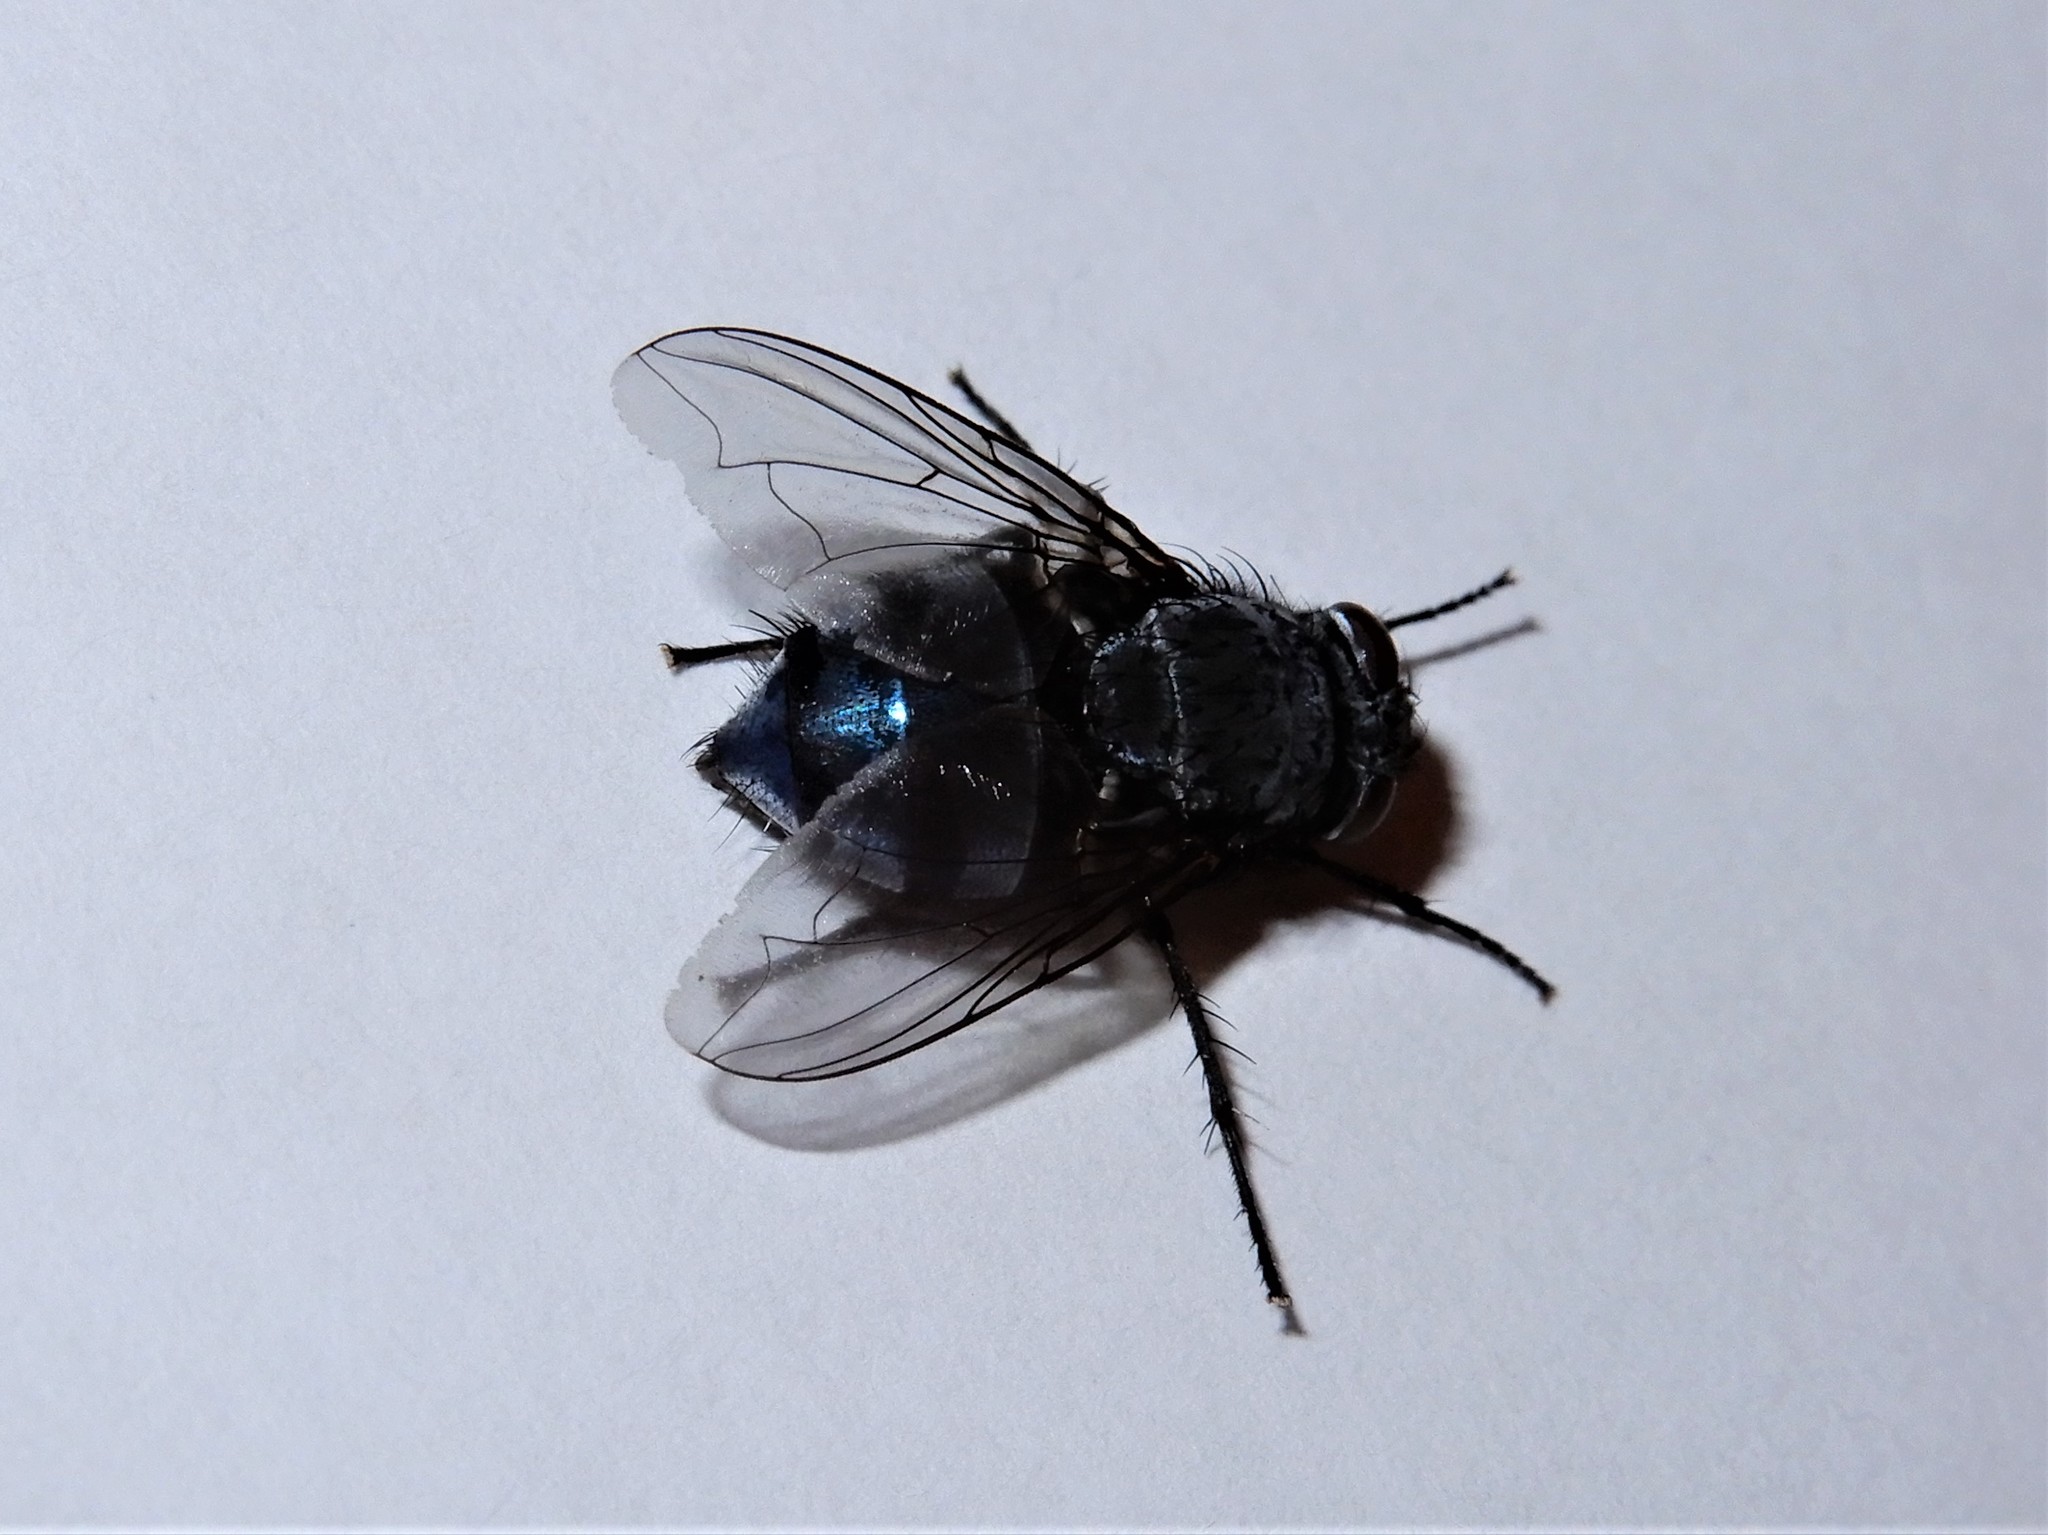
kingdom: Animalia
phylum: Arthropoda
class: Insecta
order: Diptera
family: Calliphoridae
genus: Calliphora
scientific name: Calliphora vicina
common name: Common blow flie
